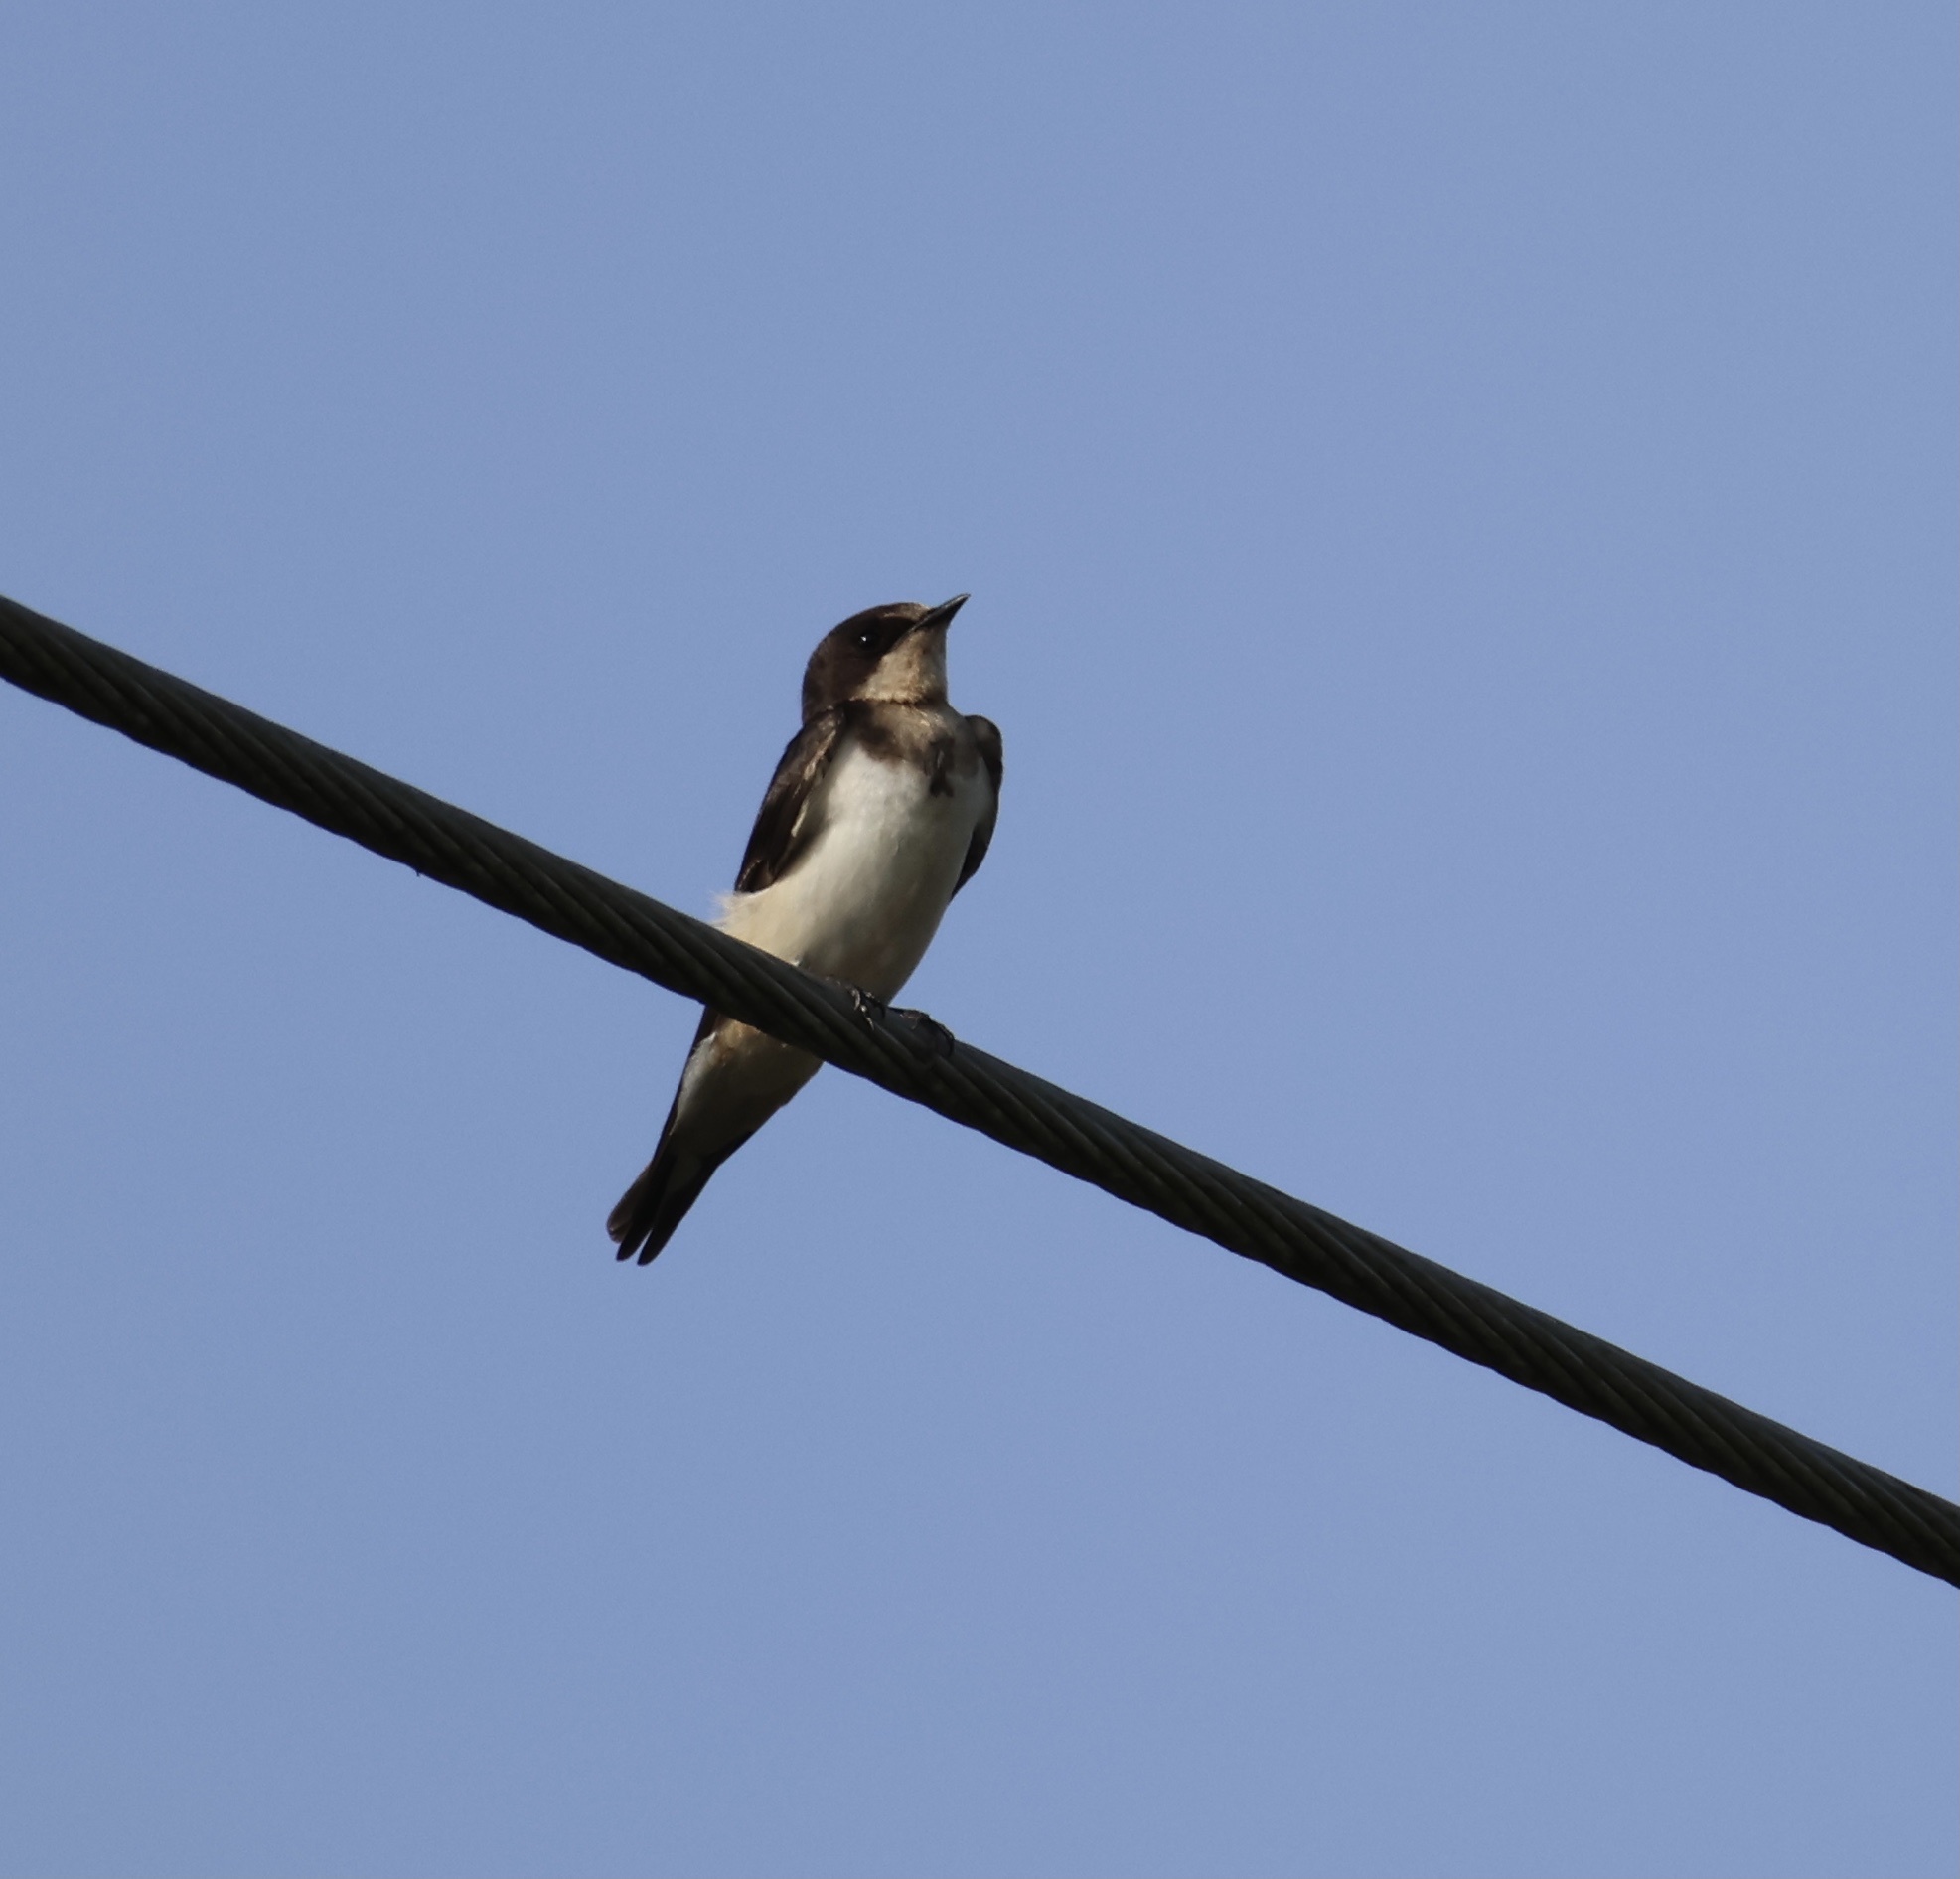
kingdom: Animalia
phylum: Chordata
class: Aves
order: Passeriformes
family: Hirundinidae
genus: Riparia
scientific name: Riparia riparia
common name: Sand martin
